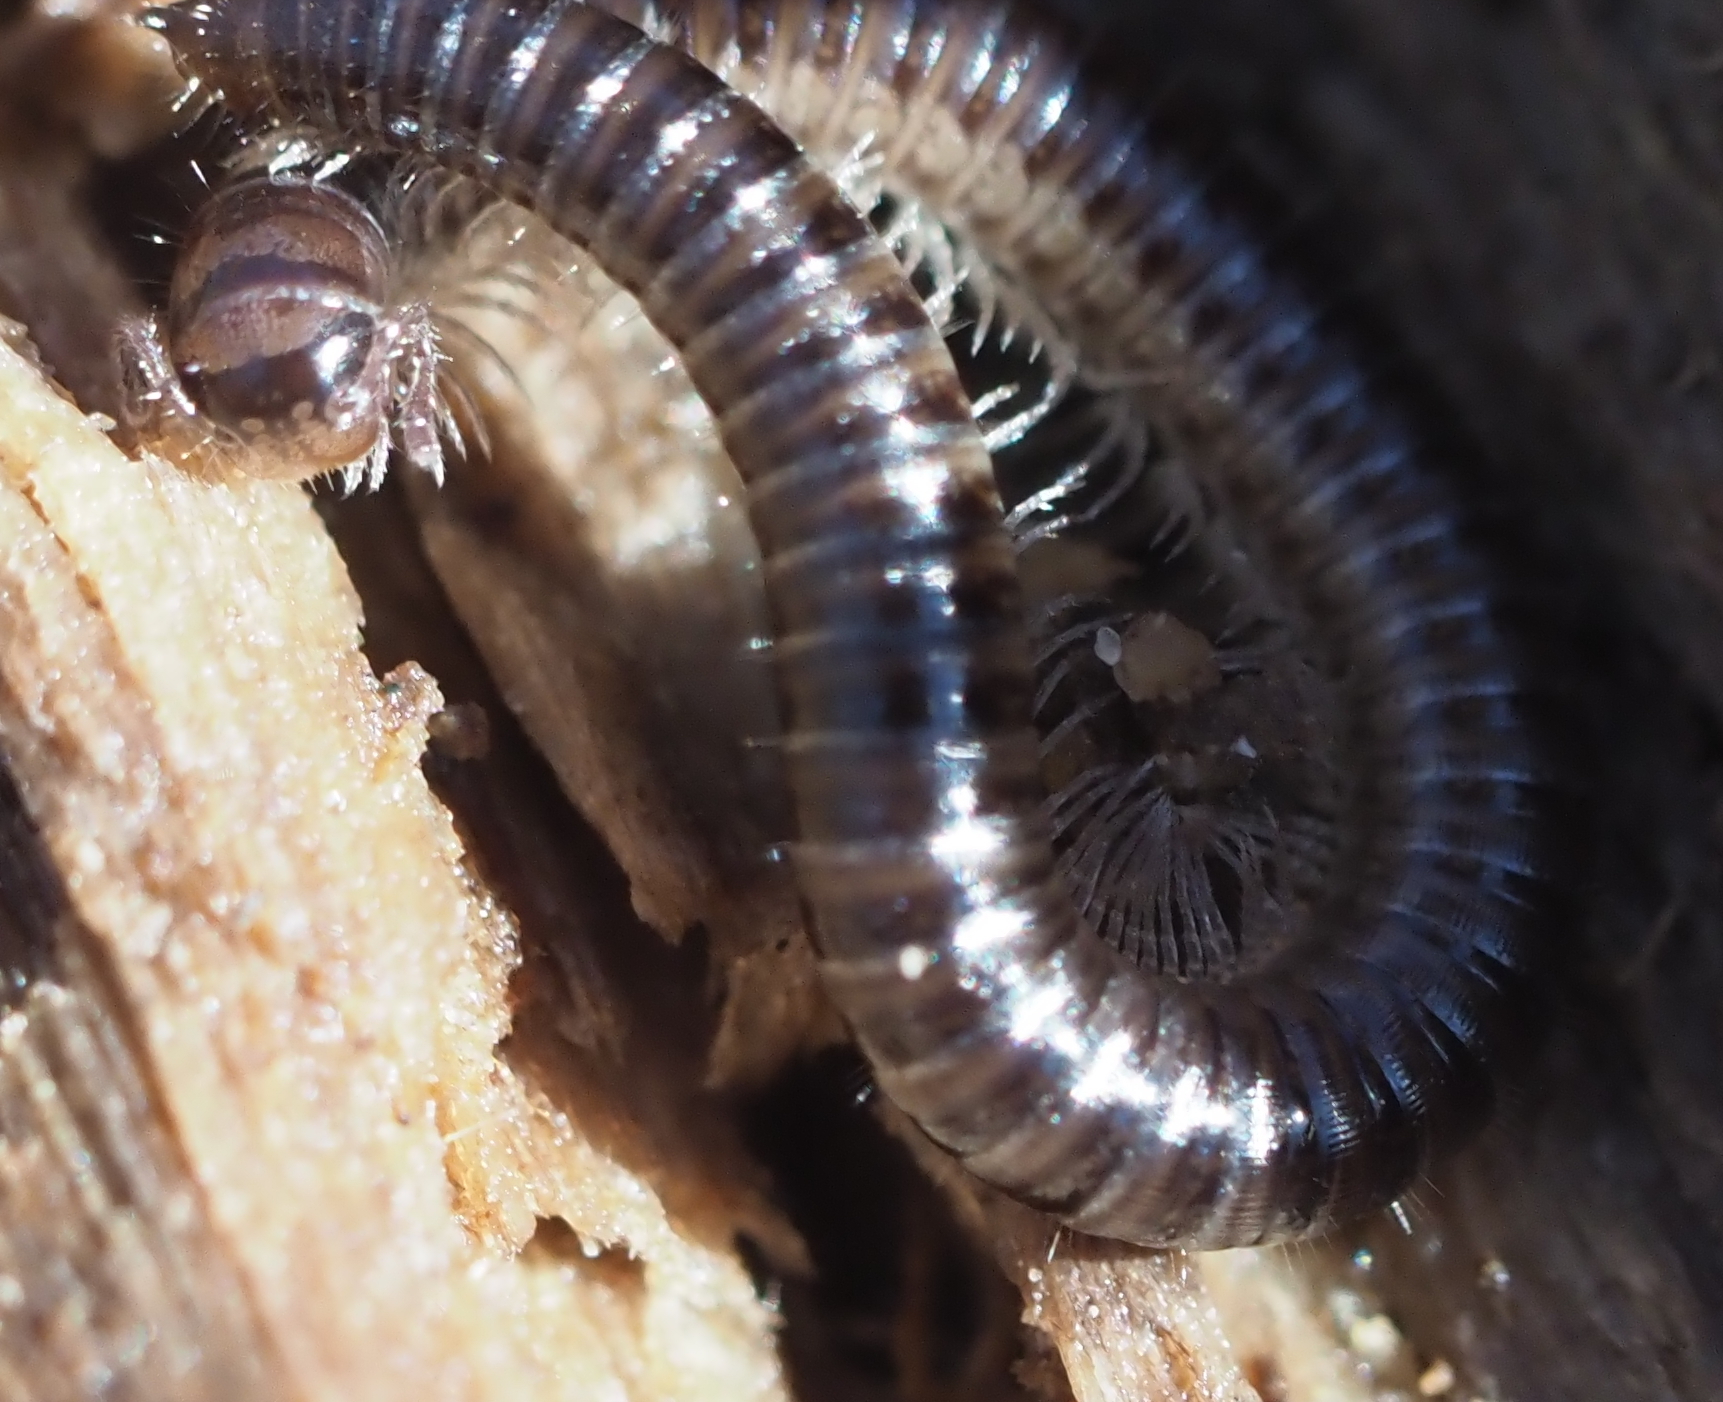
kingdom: Animalia
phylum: Arthropoda
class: Diplopoda
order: Julida
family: Julidae
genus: Ophyiulus
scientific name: Ophyiulus pilosus
